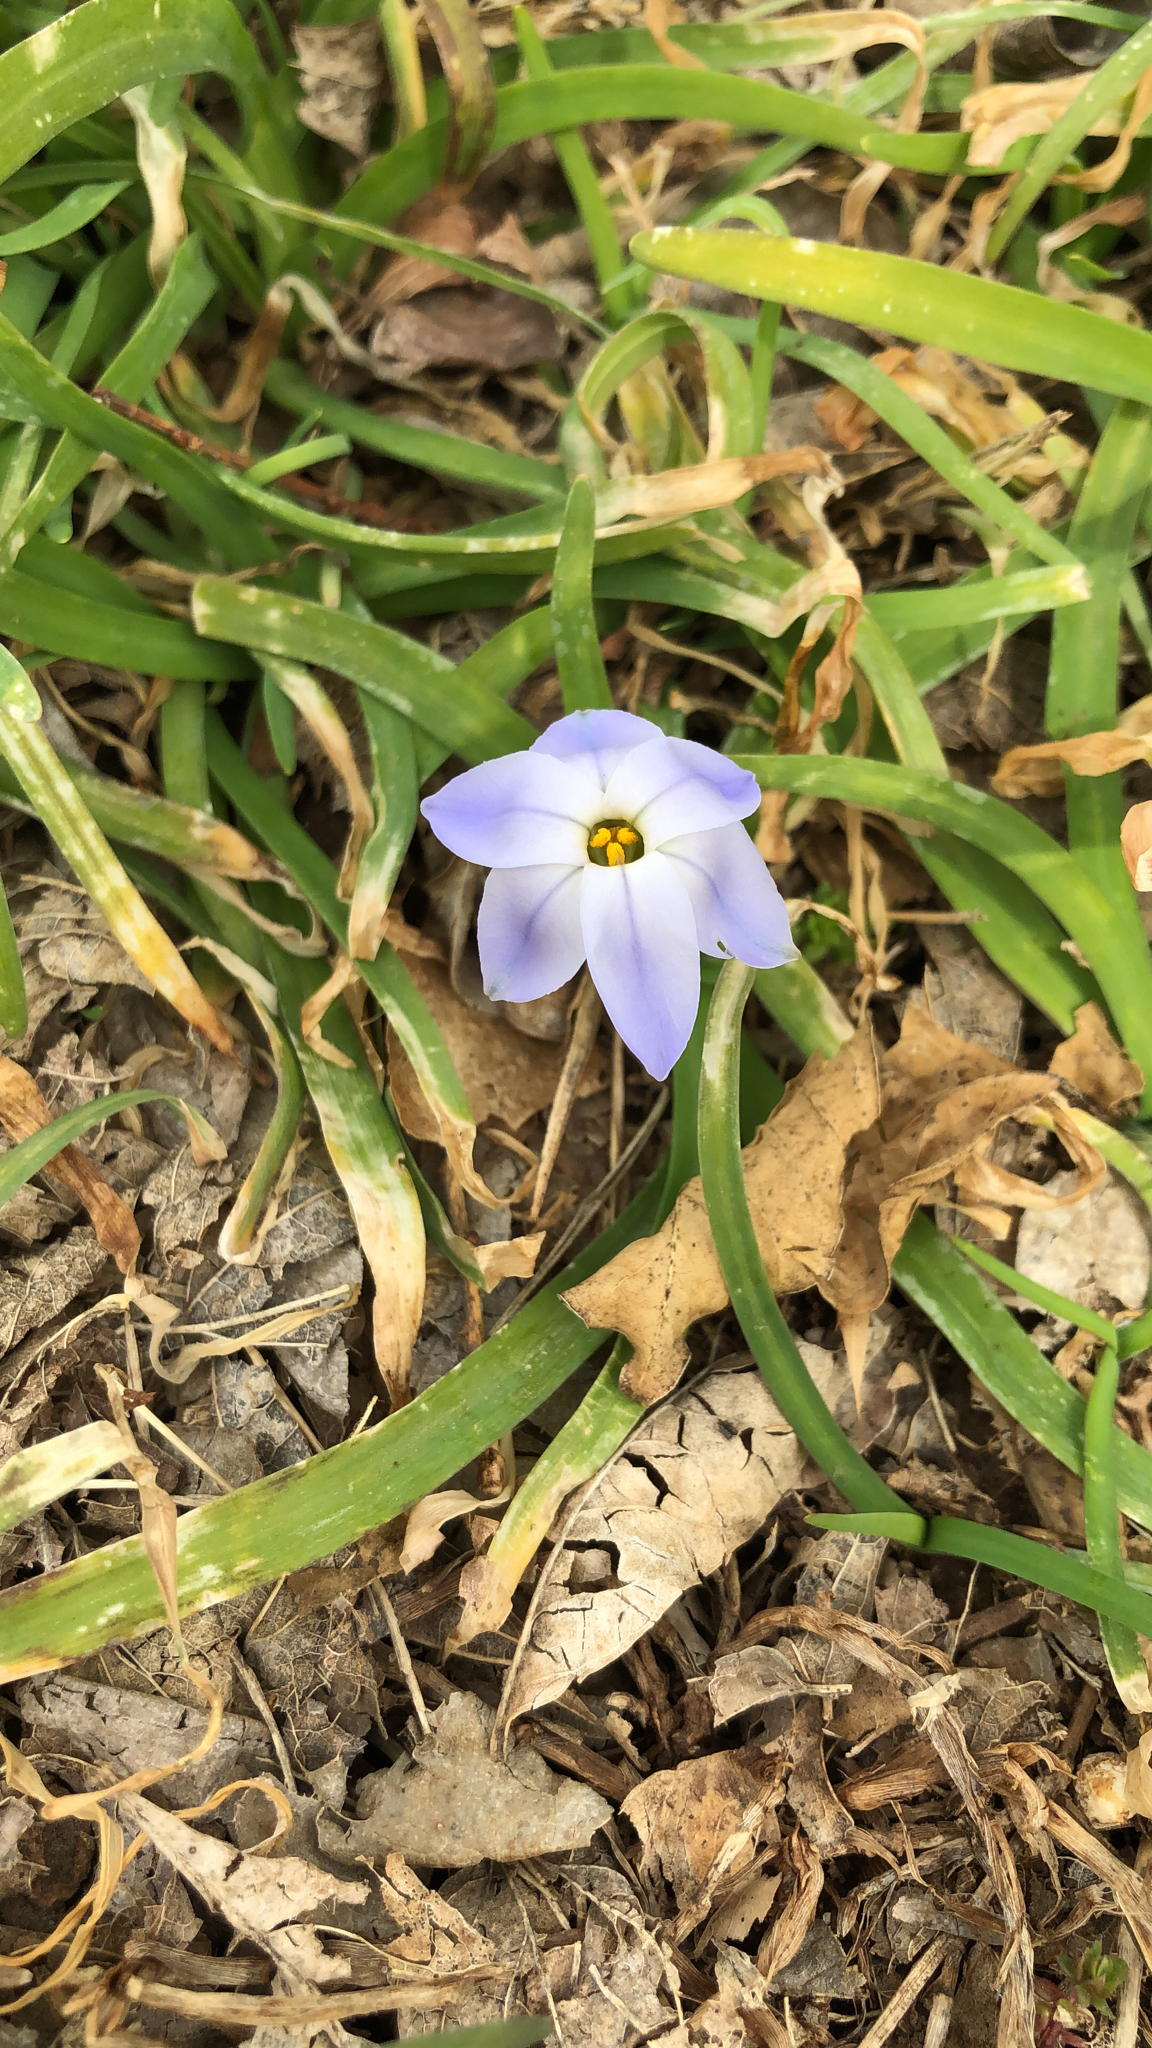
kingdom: Plantae
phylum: Tracheophyta
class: Liliopsida
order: Asparagales
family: Amaryllidaceae
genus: Ipheion
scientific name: Ipheion uniflorum
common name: Spring starflower
